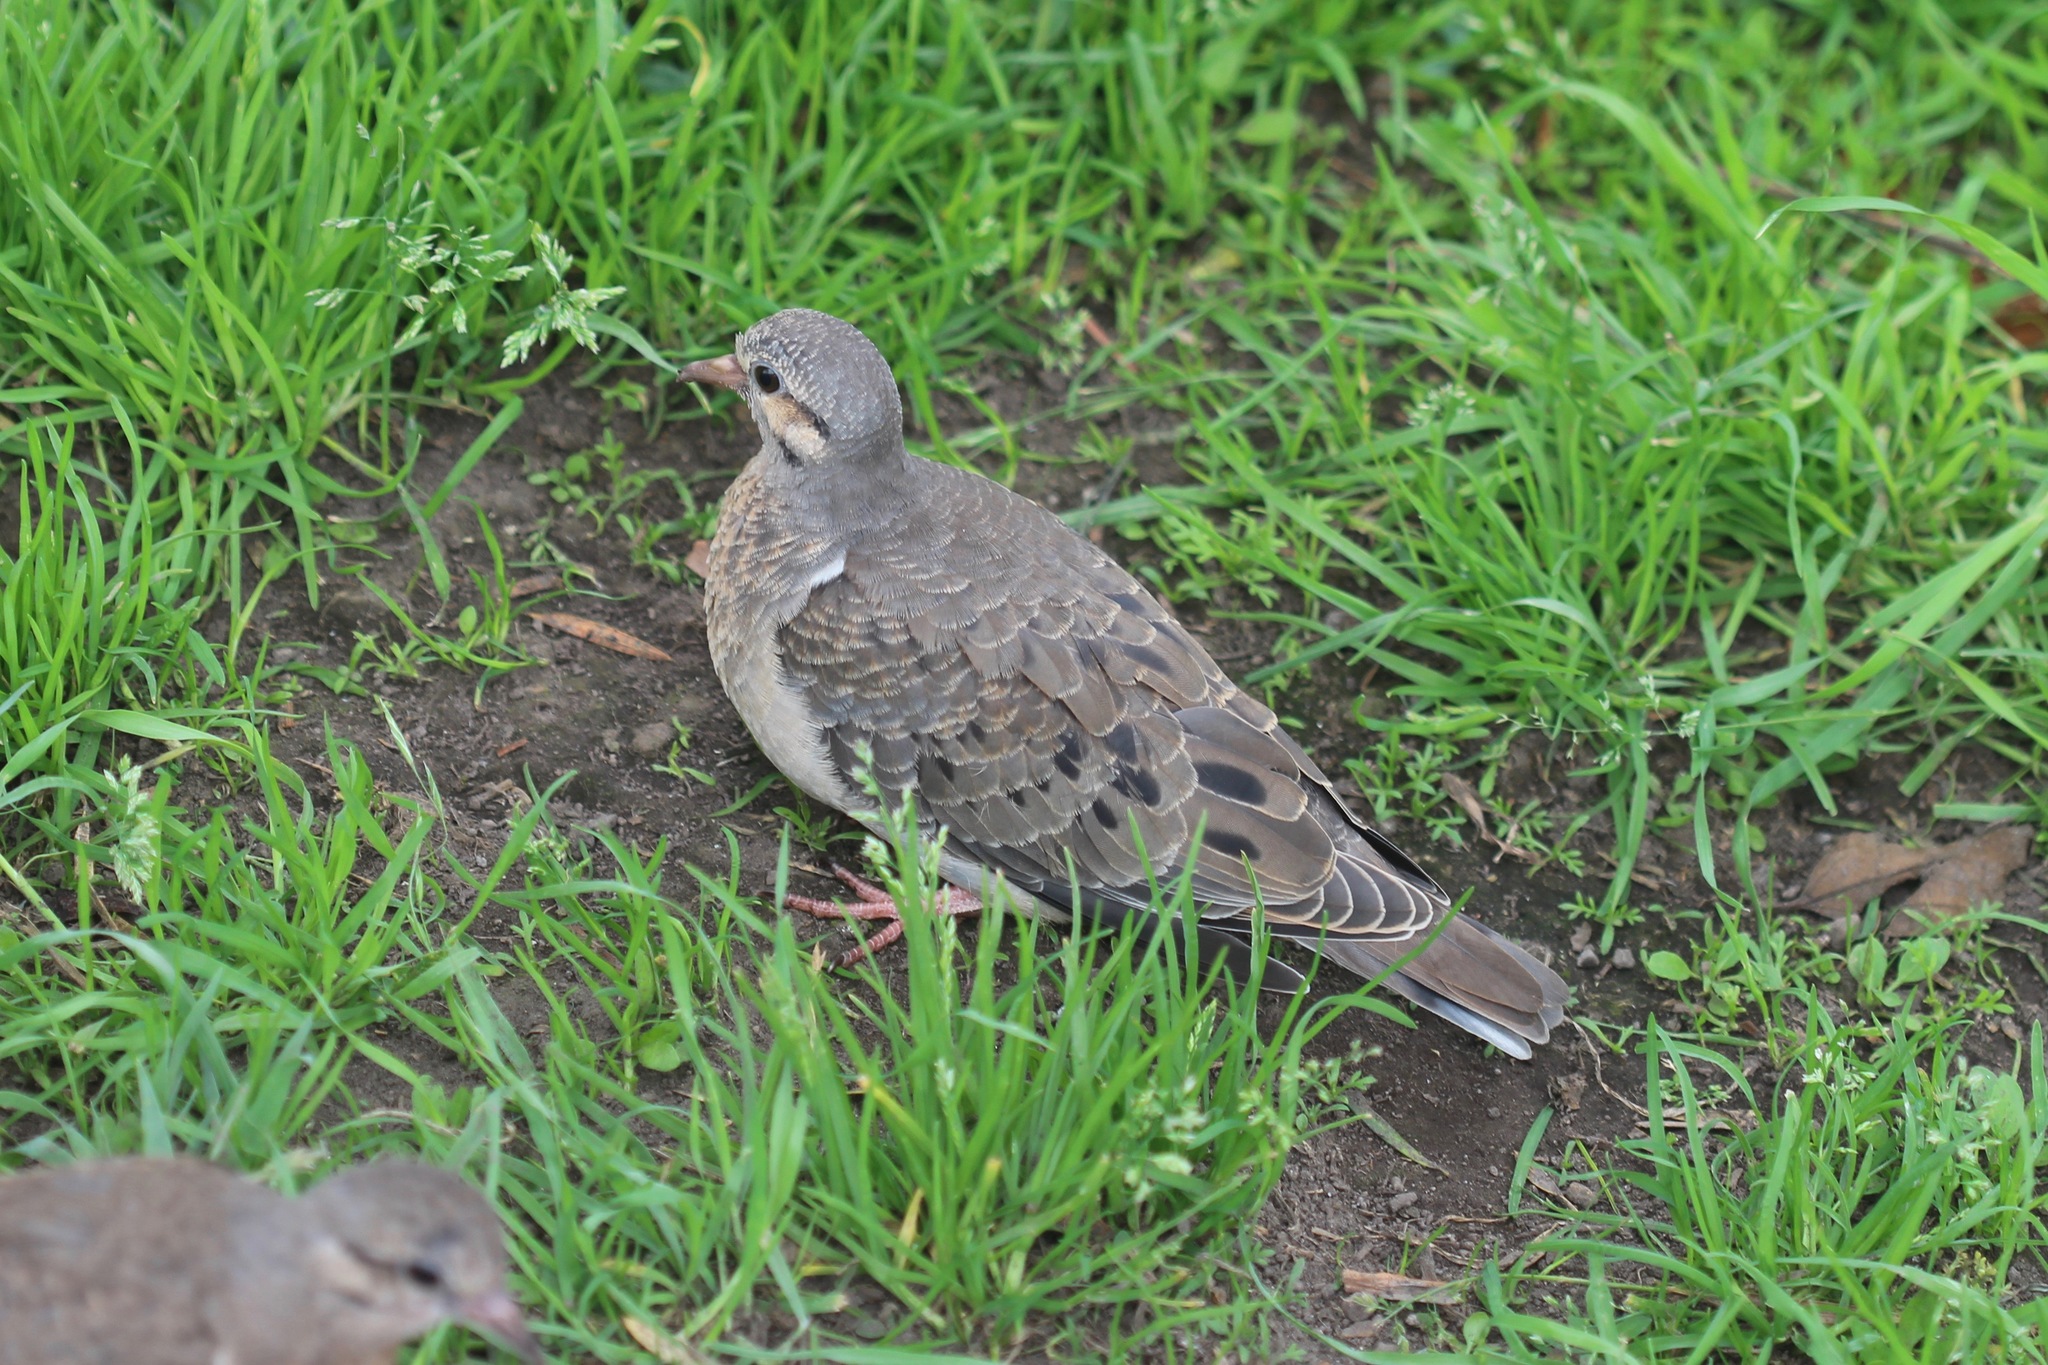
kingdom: Animalia
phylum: Chordata
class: Aves
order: Columbiformes
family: Columbidae
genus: Zenaida
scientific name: Zenaida auriculata
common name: Eared dove
